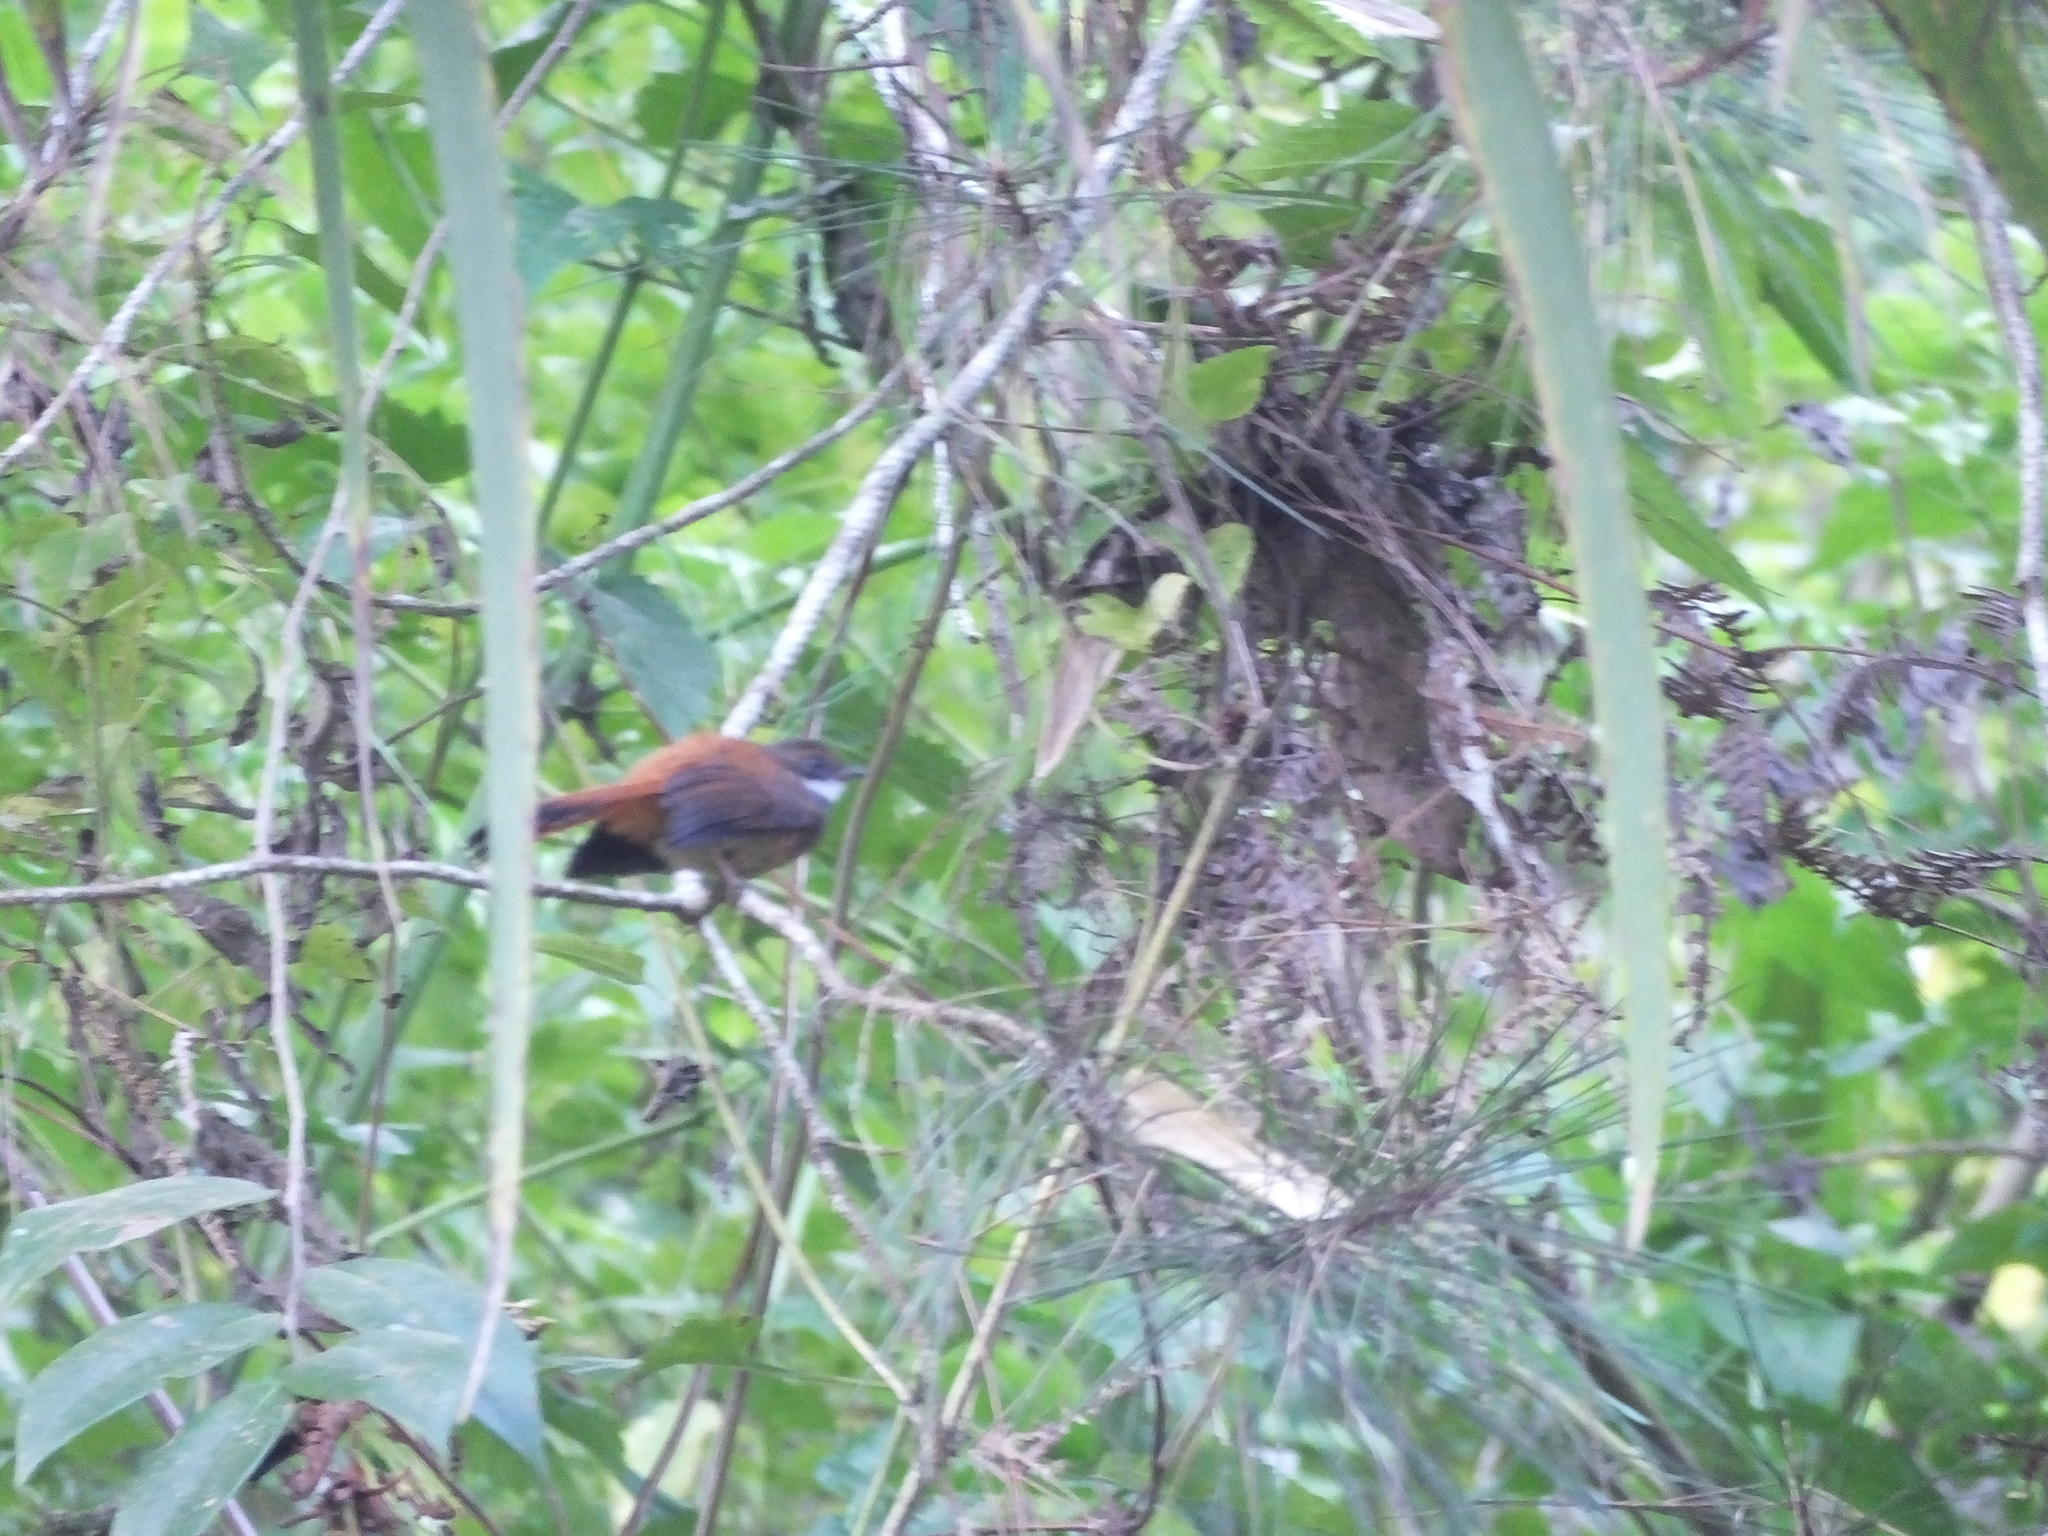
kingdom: Animalia
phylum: Chordata
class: Aves
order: Passeriformes
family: Rhipiduridae
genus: Rhipidura
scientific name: Rhipidura teysmanni
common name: Rusty-bellied fantail
